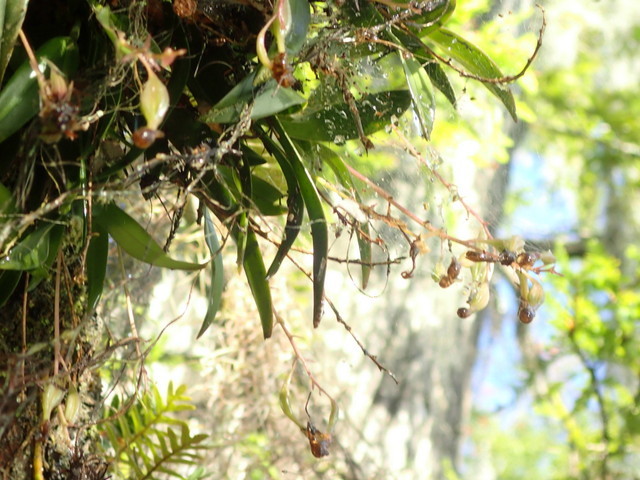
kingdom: Plantae
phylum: Tracheophyta
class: Liliopsida
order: Asparagales
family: Orchidaceae
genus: Epidendrum
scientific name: Epidendrum conopseum
